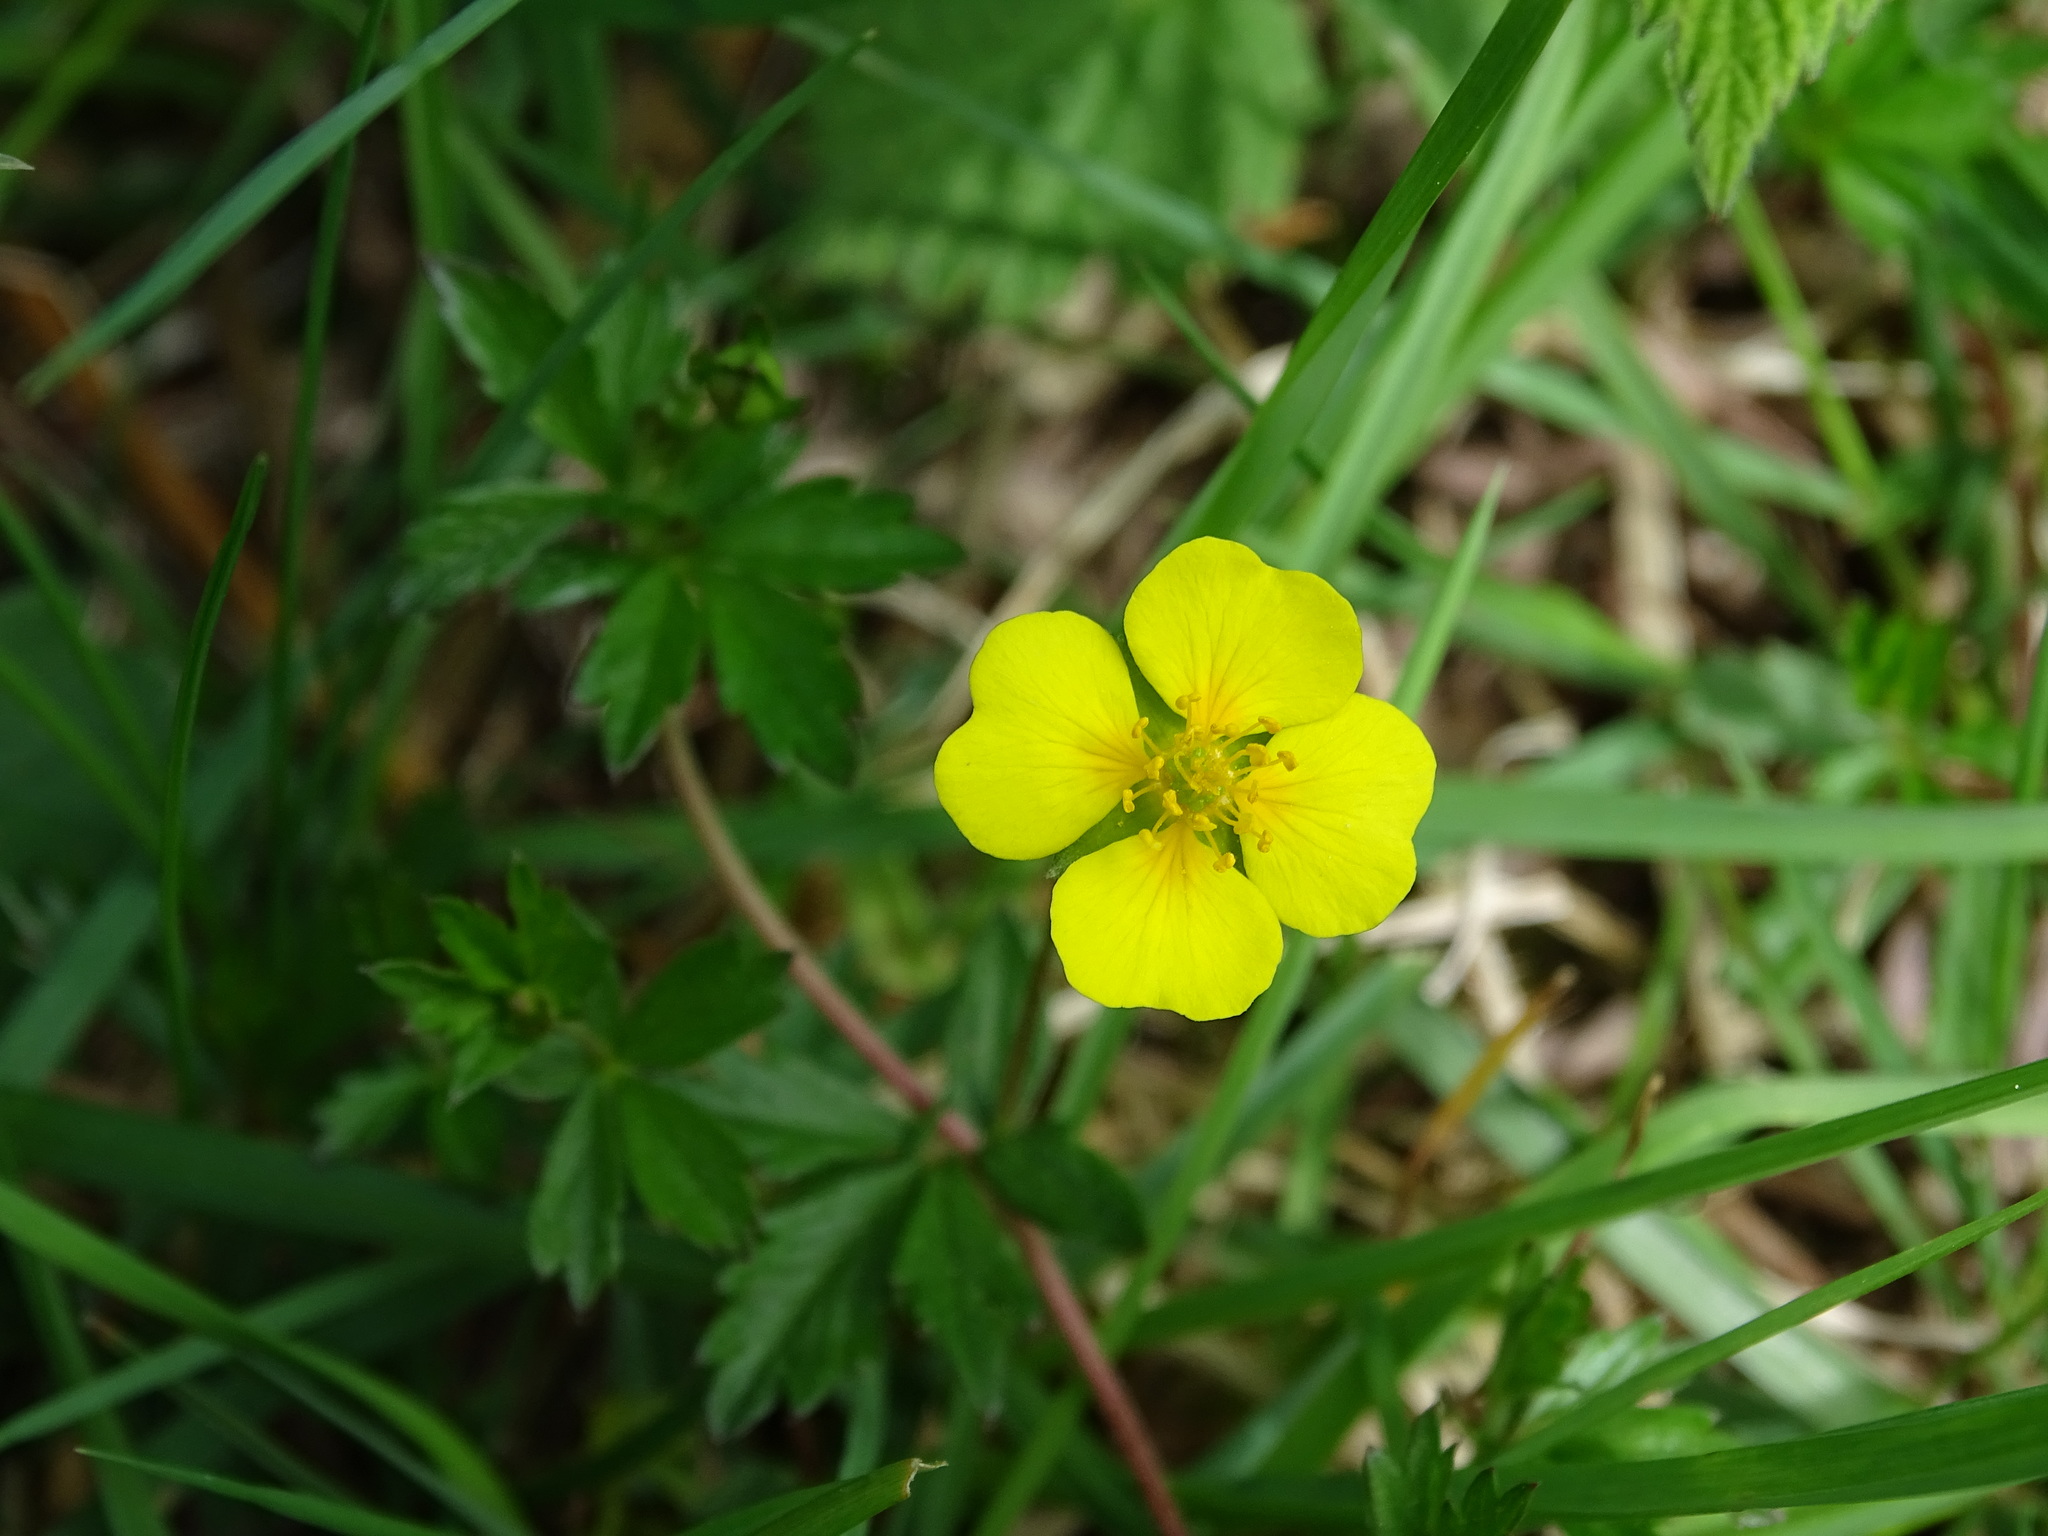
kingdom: Plantae
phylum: Tracheophyta
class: Magnoliopsida
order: Rosales
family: Rosaceae
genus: Potentilla
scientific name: Potentilla erecta
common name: Tormentil
